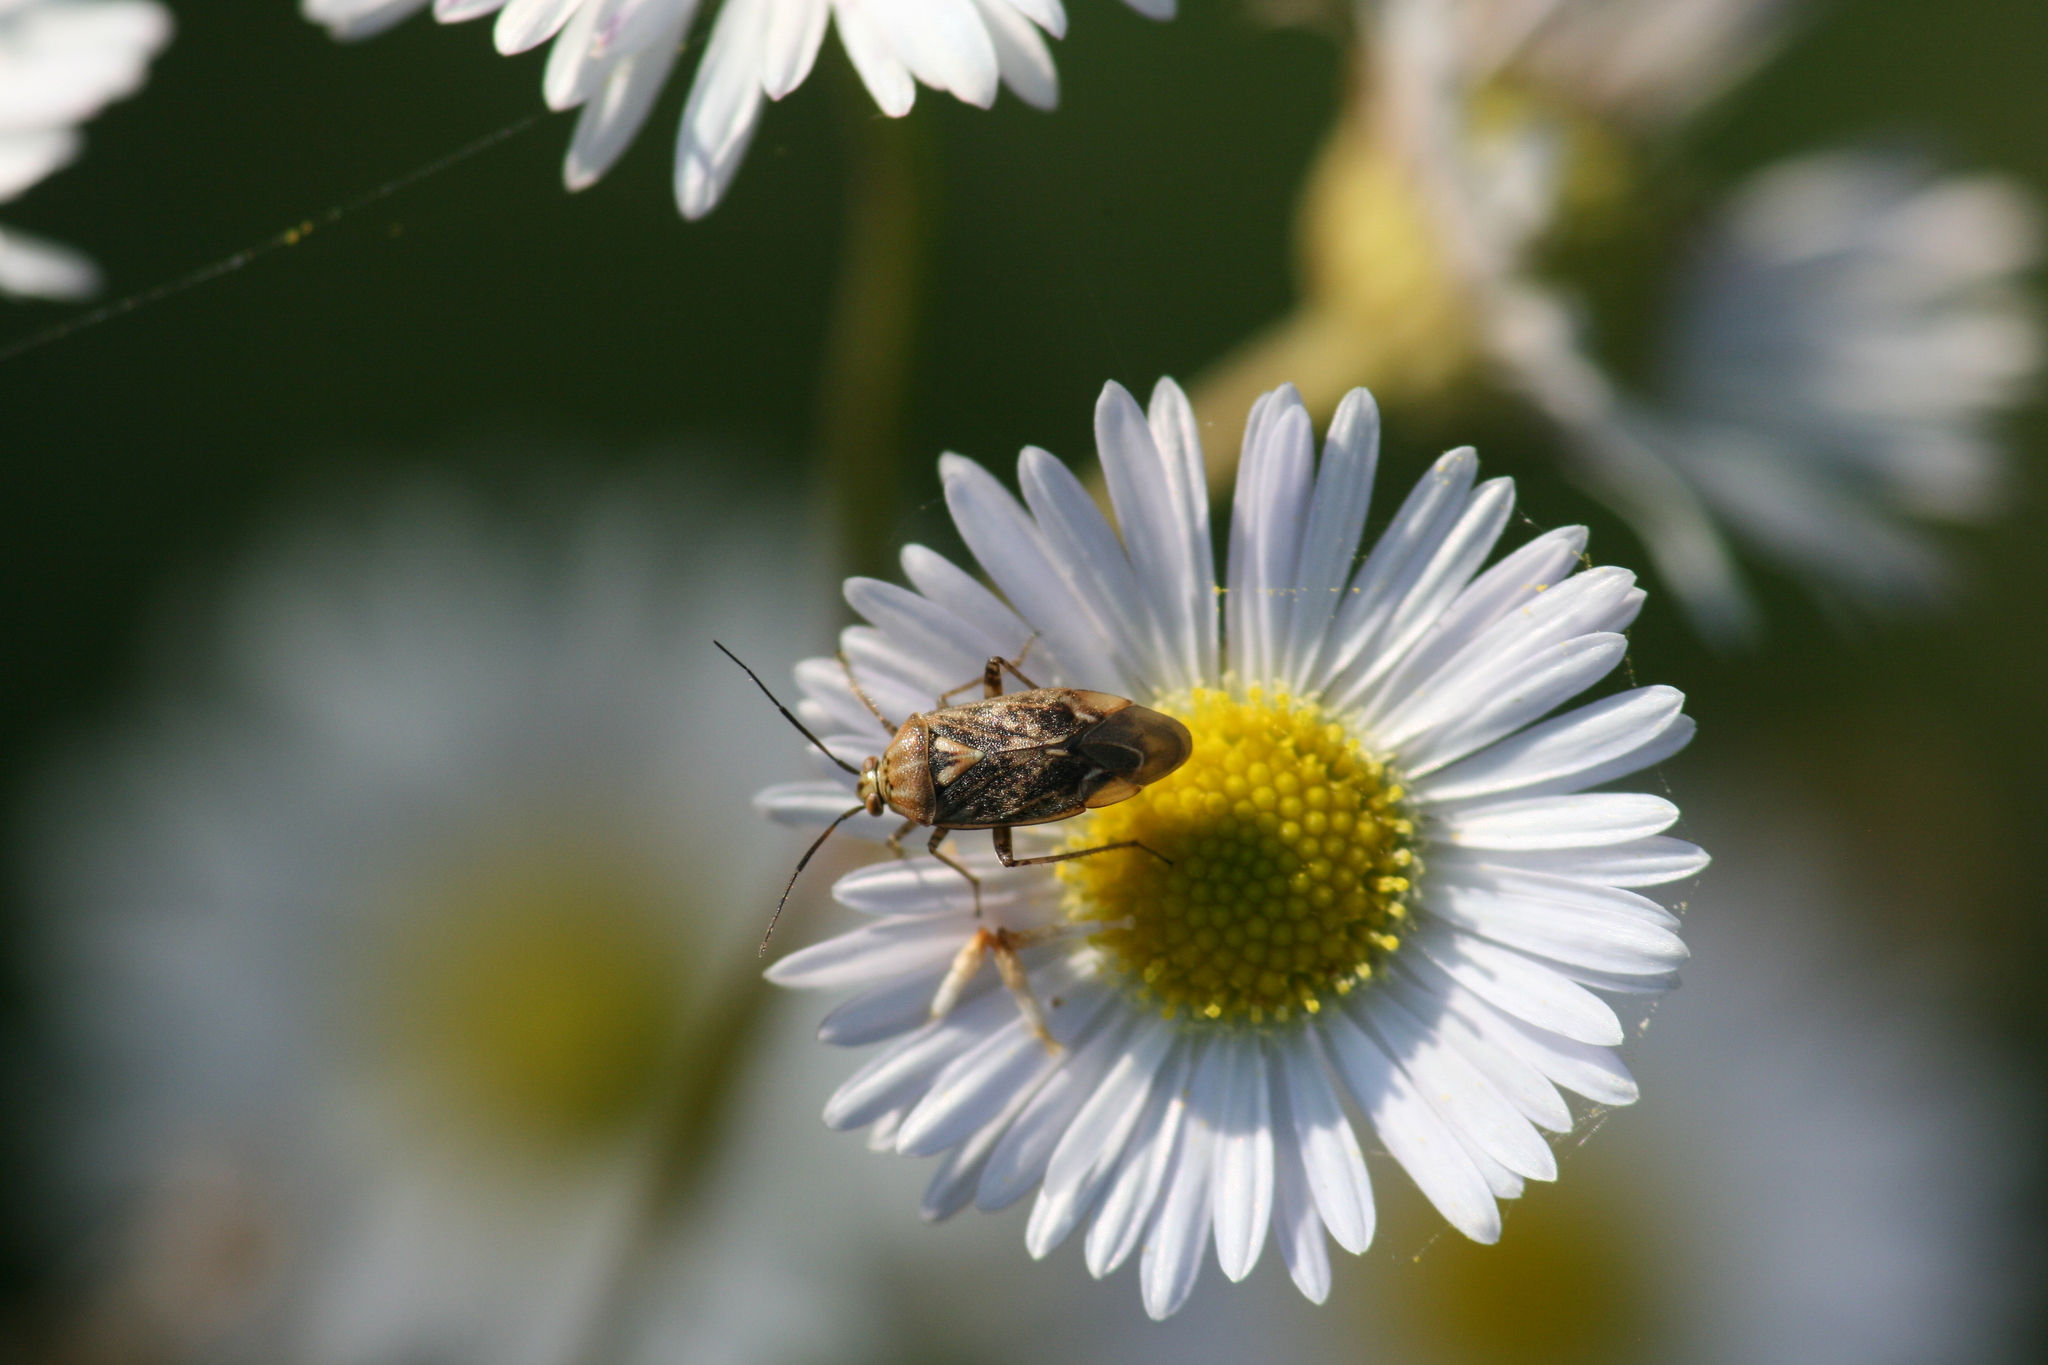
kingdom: Animalia
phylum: Arthropoda
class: Insecta
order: Hemiptera
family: Miridae
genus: Lygus
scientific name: Lygus rugulipennis
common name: European tarnished plant bug
